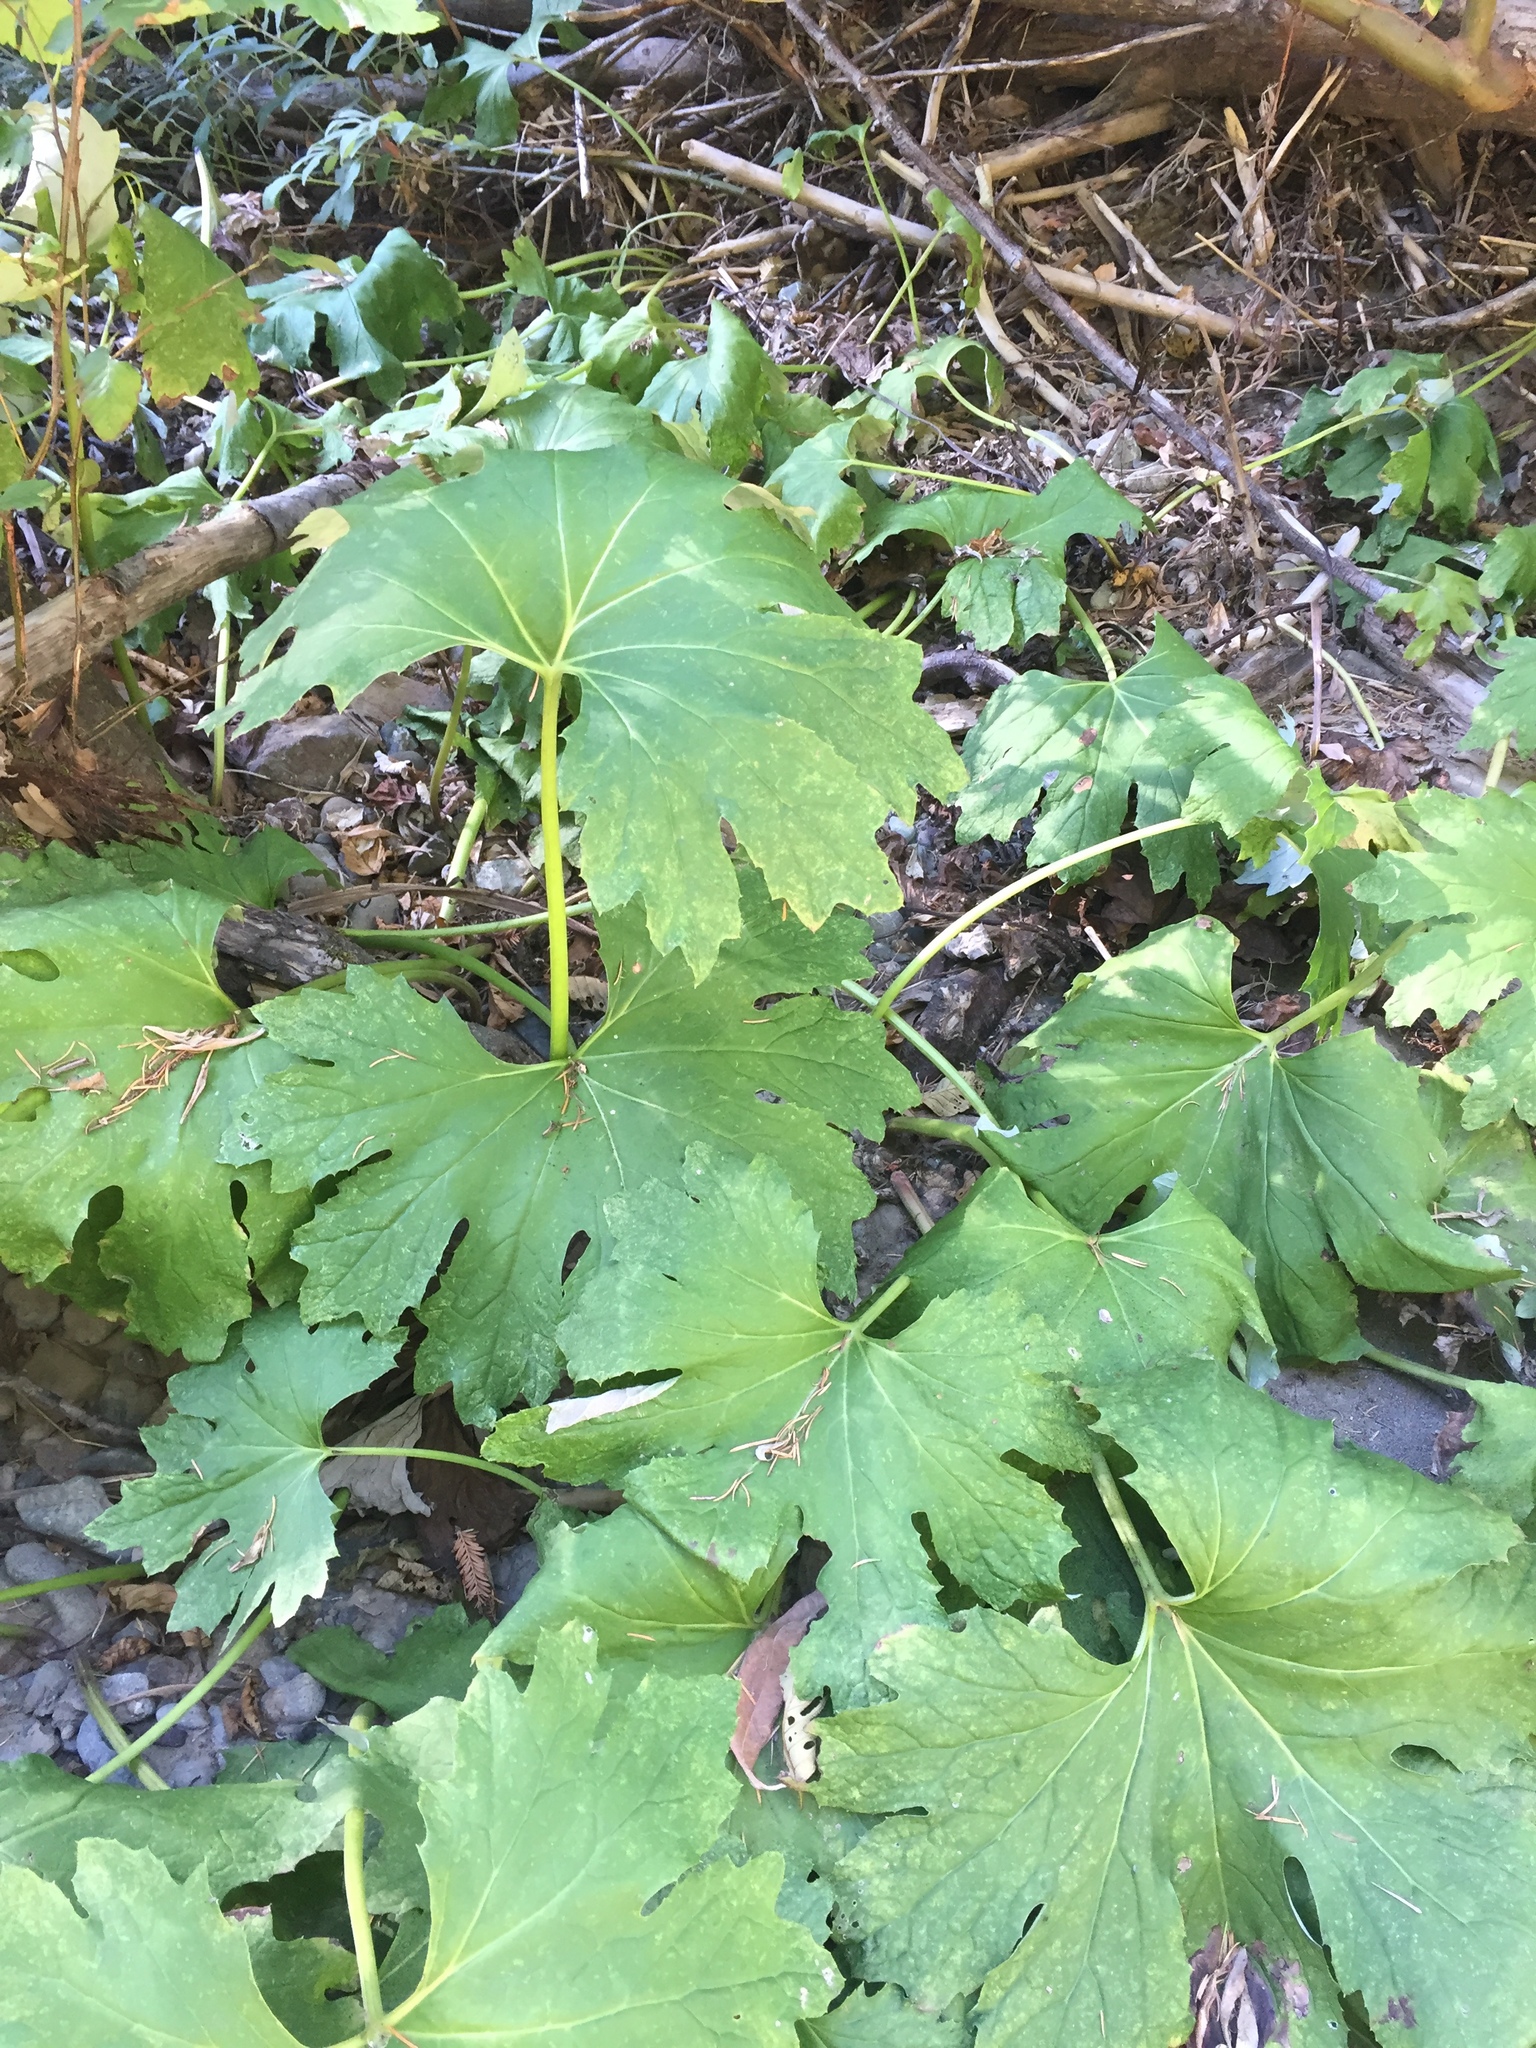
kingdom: Plantae
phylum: Tracheophyta
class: Magnoliopsida
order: Asterales
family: Asteraceae
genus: Petasites
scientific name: Petasites frigidus
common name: Arctic butterbur
